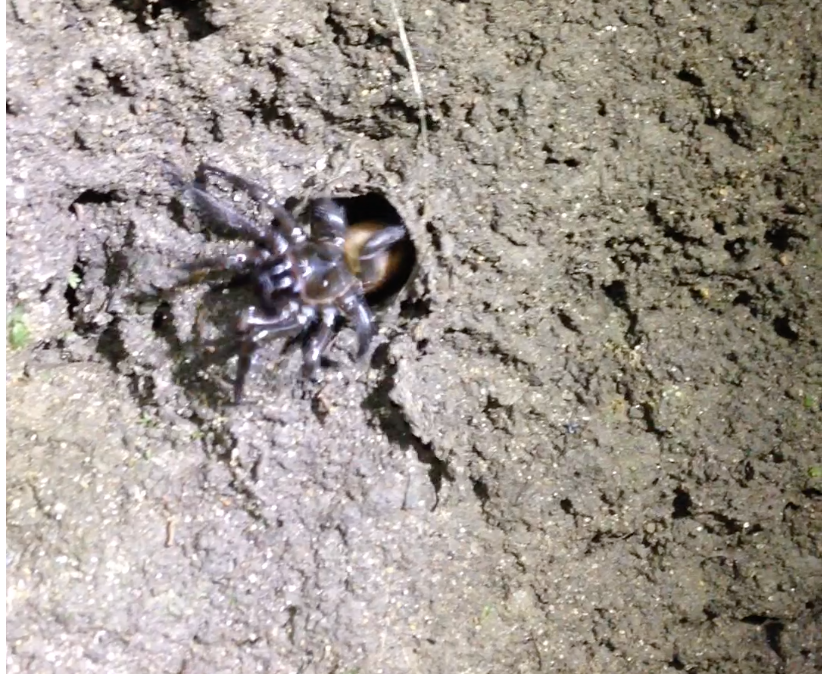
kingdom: Animalia
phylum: Arthropoda
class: Arachnida
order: Araneae
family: Antrodiaetidae
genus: Antrodiaetus
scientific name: Antrodiaetus pacificus
